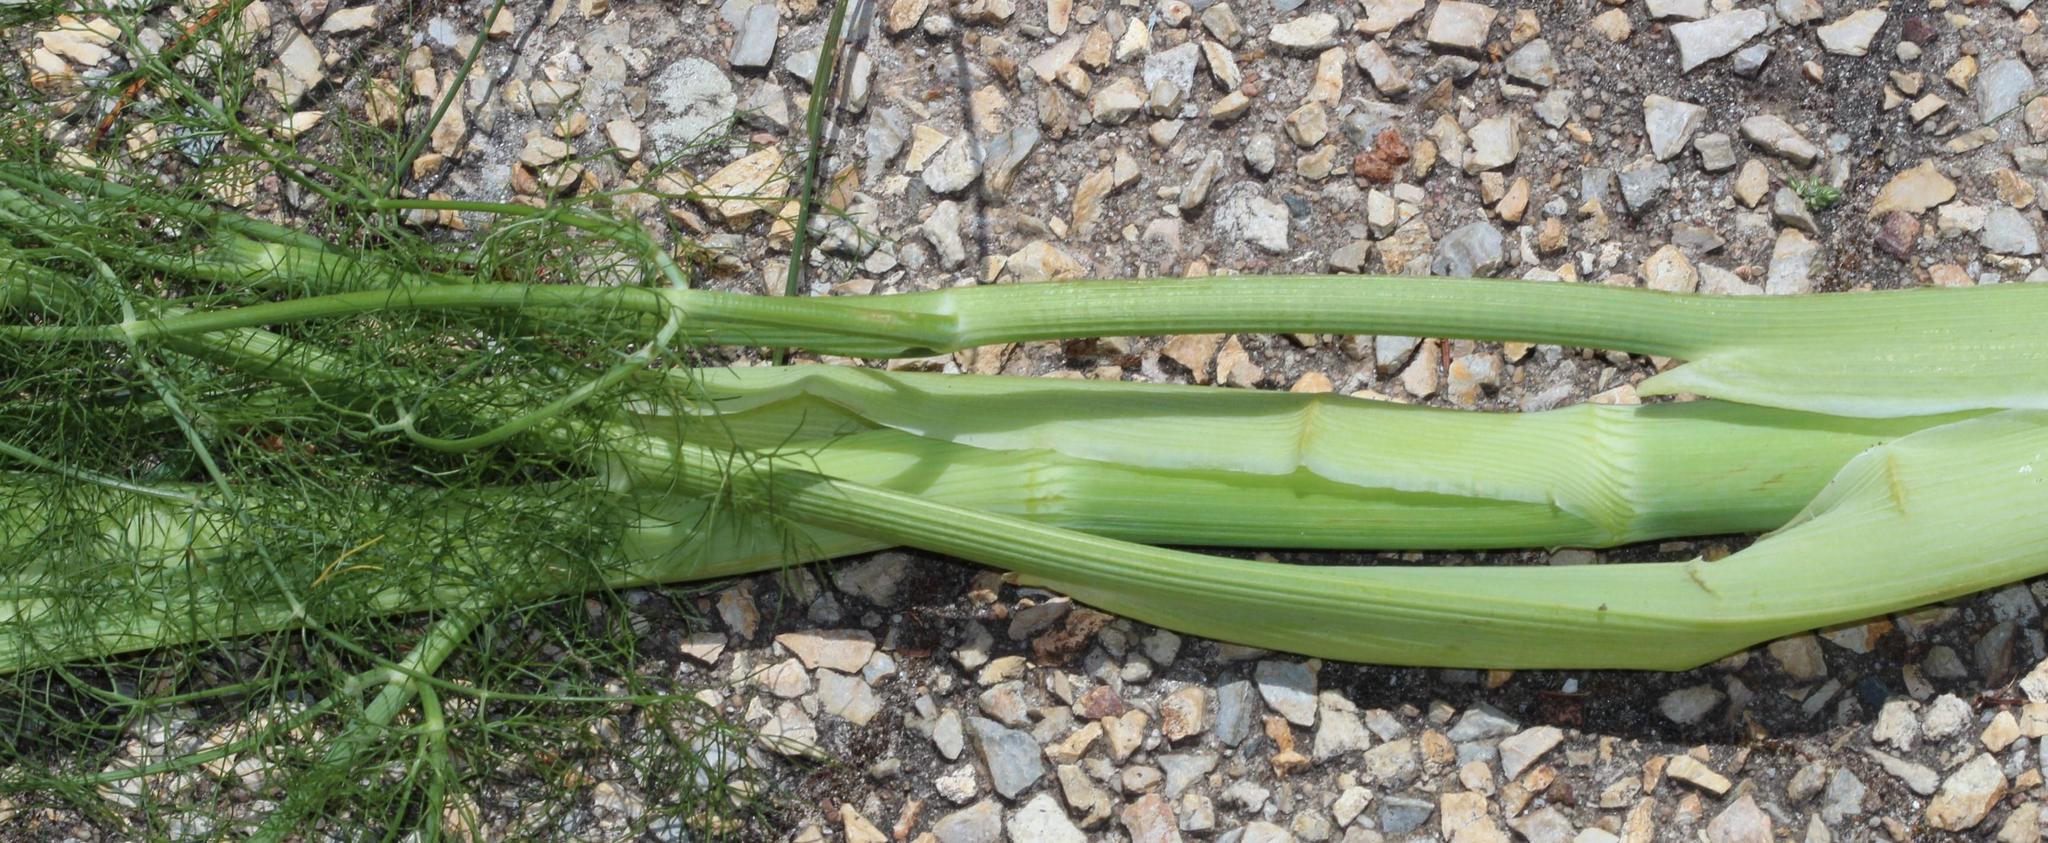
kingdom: Plantae
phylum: Tracheophyta
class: Magnoliopsida
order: Apiales
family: Apiaceae
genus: Foeniculum
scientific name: Foeniculum vulgare
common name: Fennel
